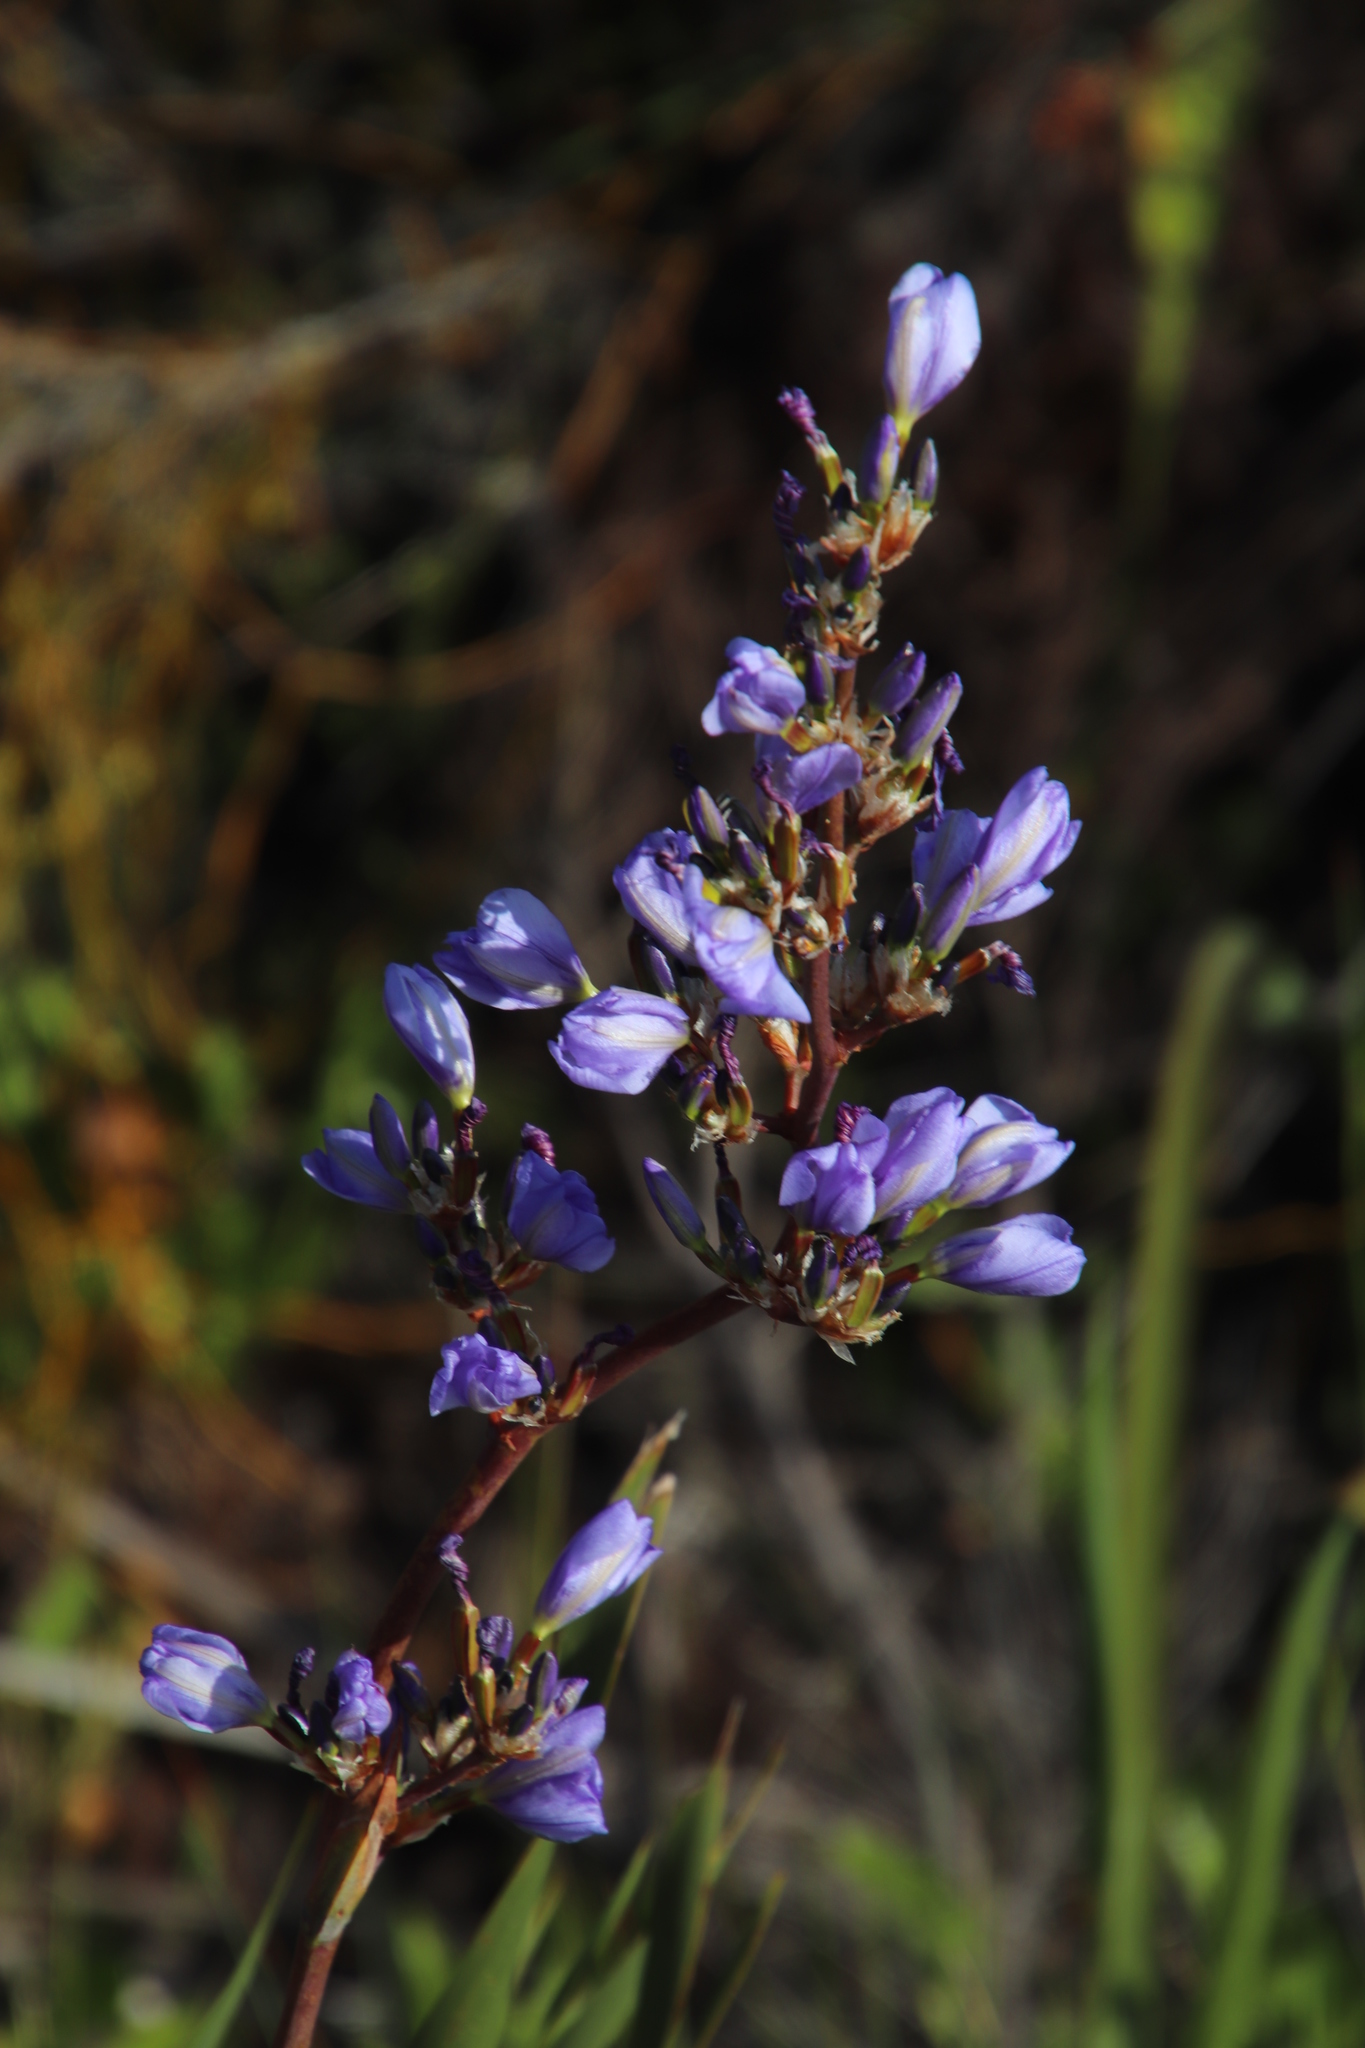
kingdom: Plantae
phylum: Tracheophyta
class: Liliopsida
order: Asparagales
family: Iridaceae
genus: Aristea
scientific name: Aristea bakeri
